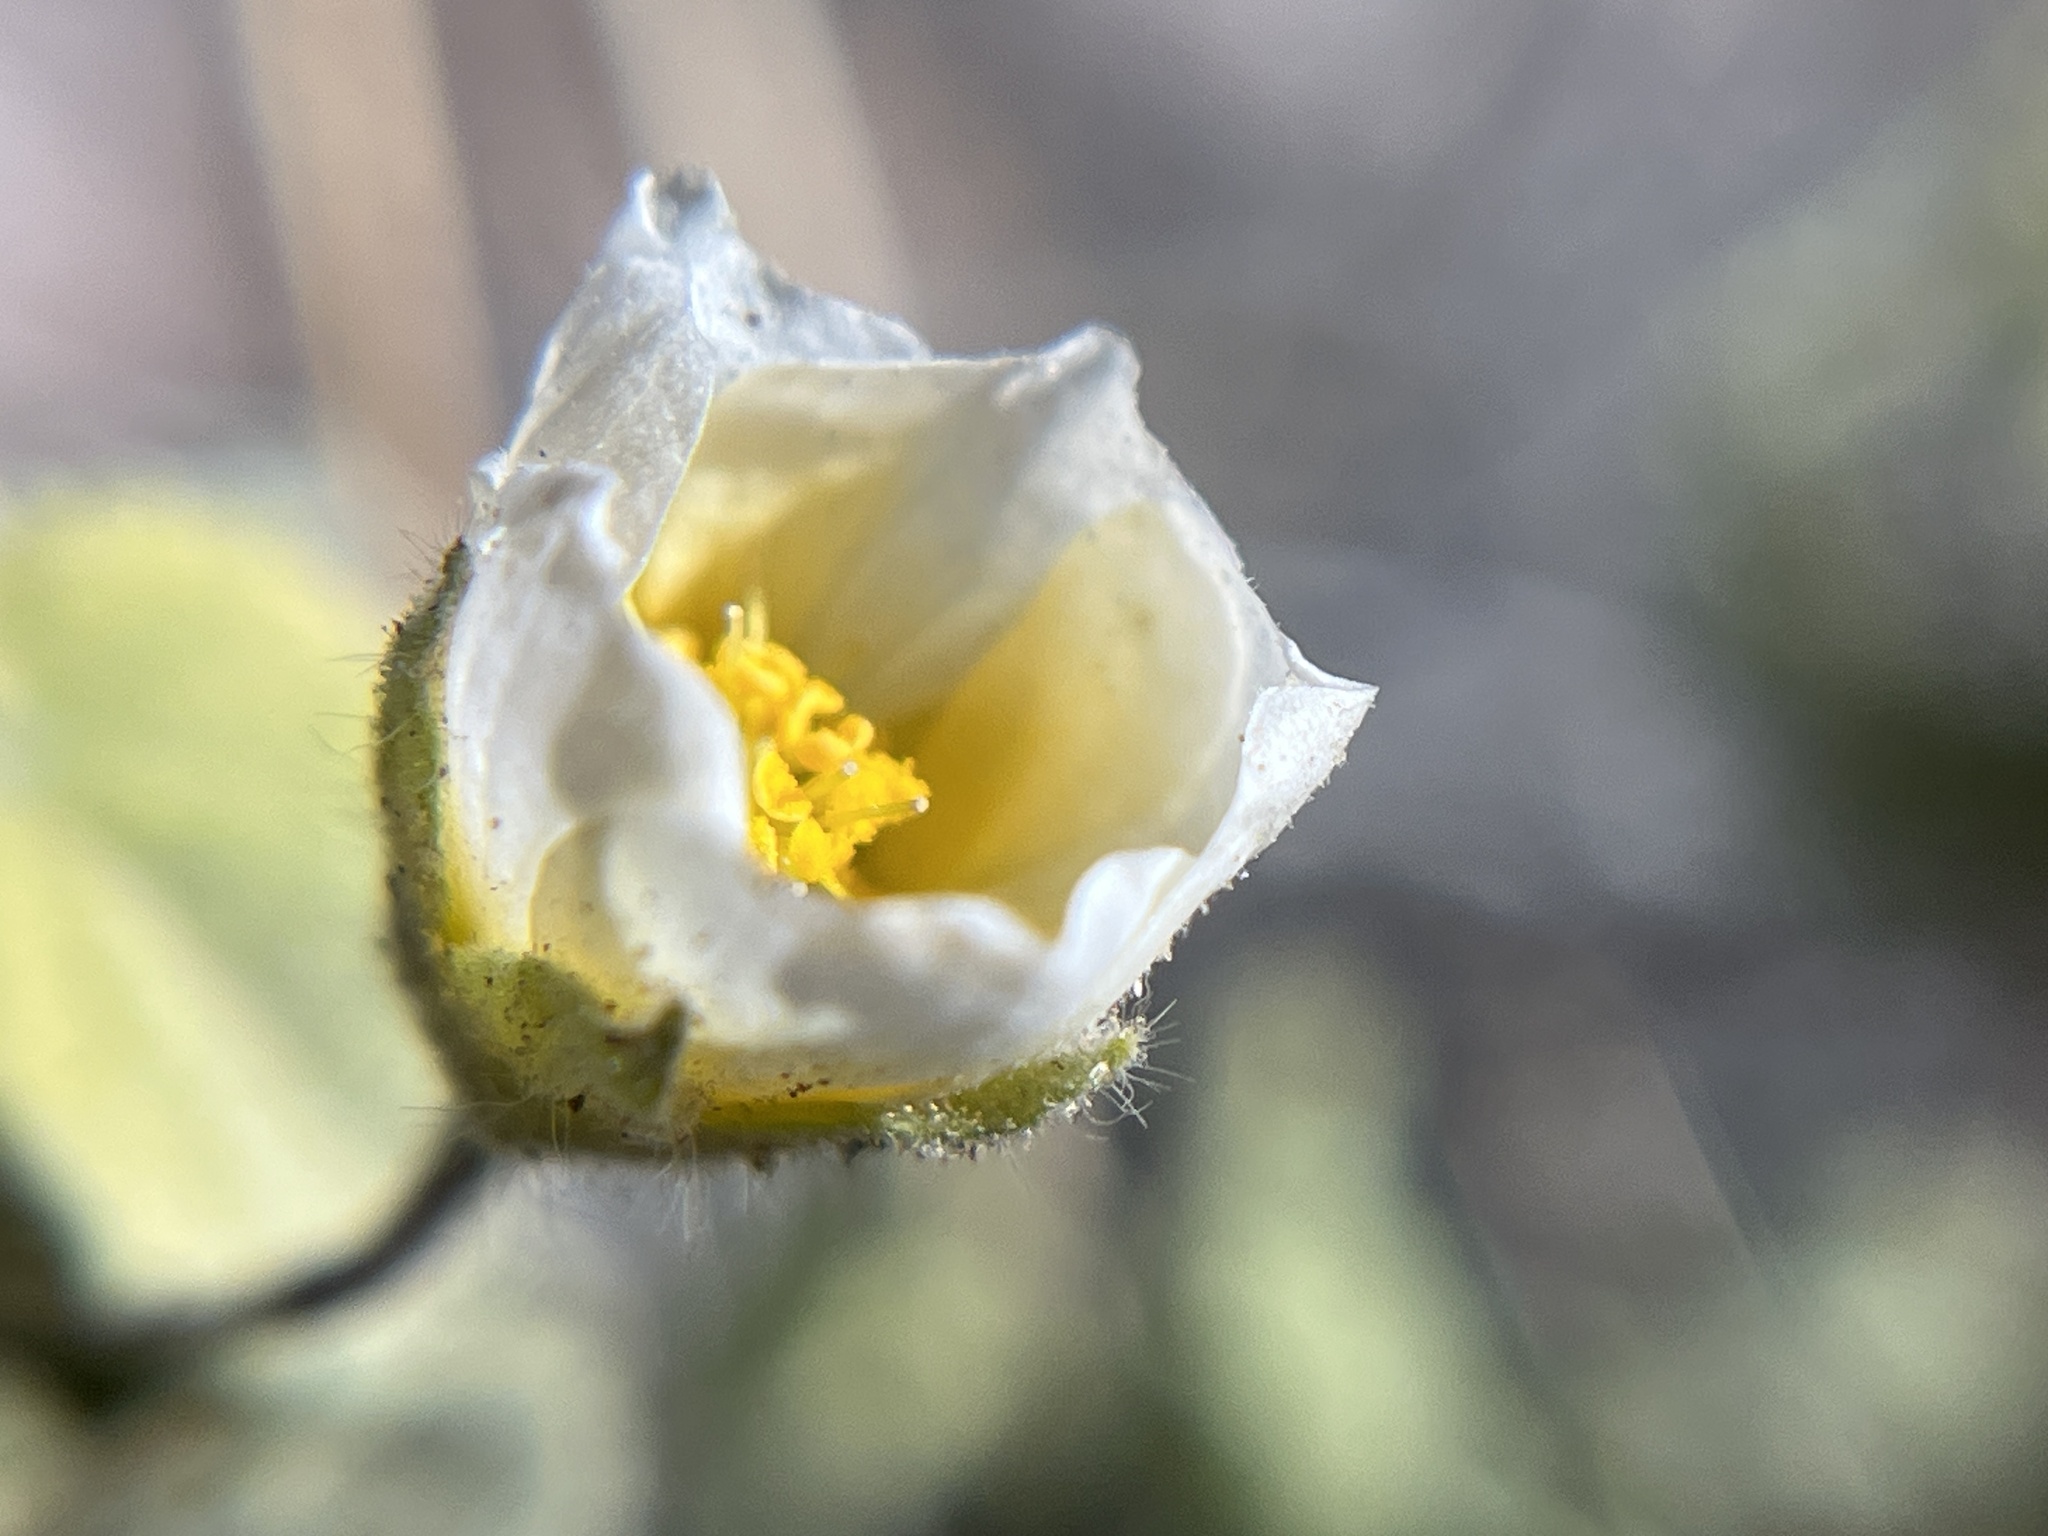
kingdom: Plantae
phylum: Tracheophyta
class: Magnoliopsida
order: Malvales
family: Malvaceae
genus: Herissantia
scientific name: Herissantia crispa
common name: Bladdermallow
